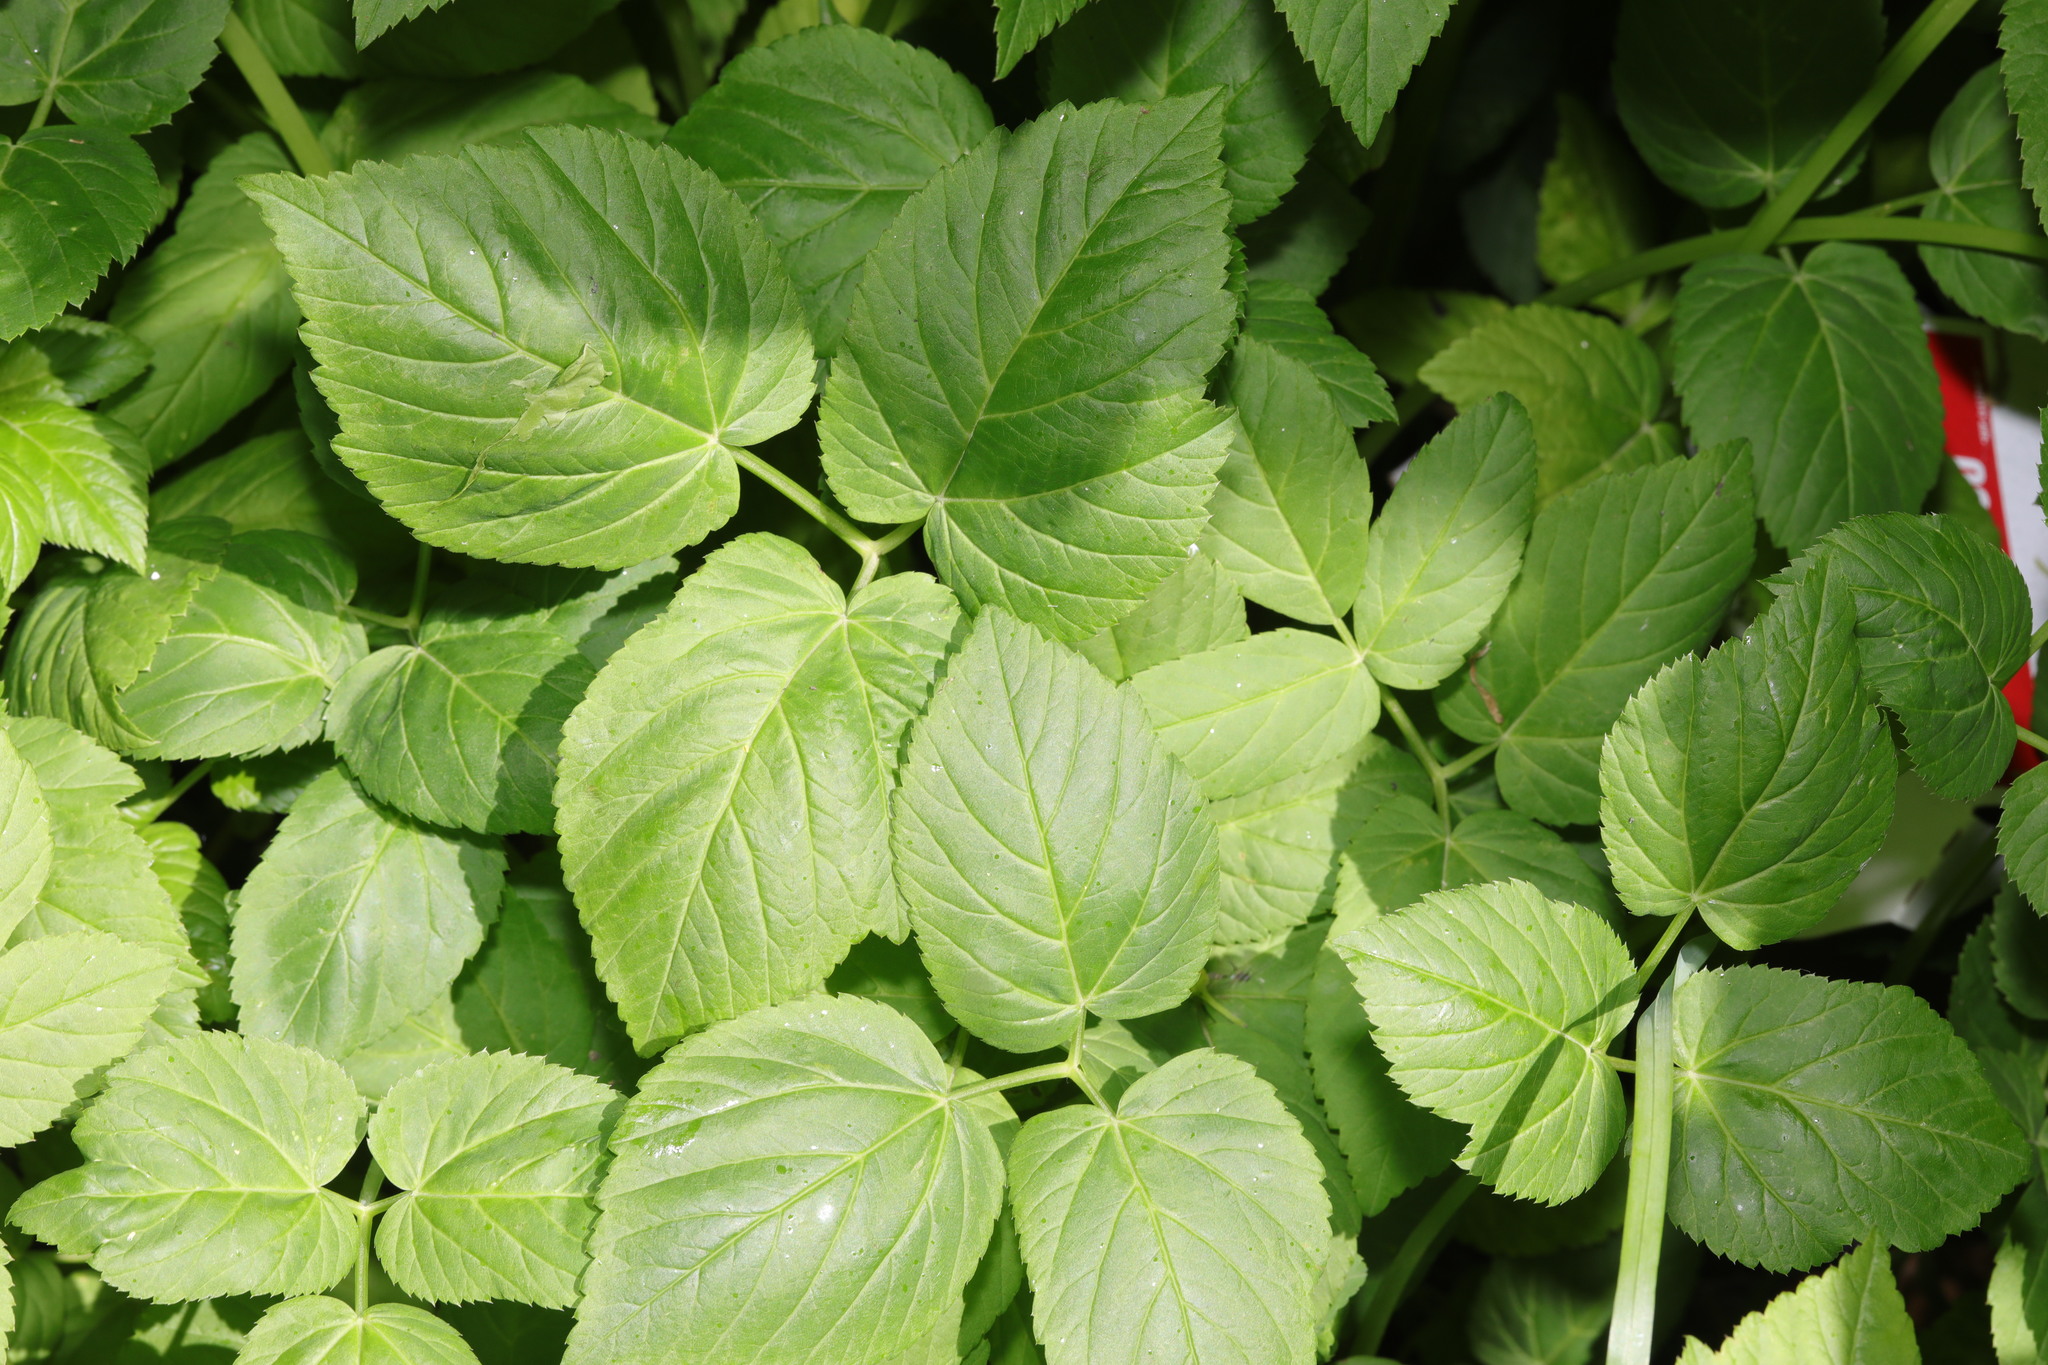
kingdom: Plantae
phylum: Tracheophyta
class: Magnoliopsida
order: Apiales
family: Apiaceae
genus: Aegopodium
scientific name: Aegopodium podagraria
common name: Ground-elder
